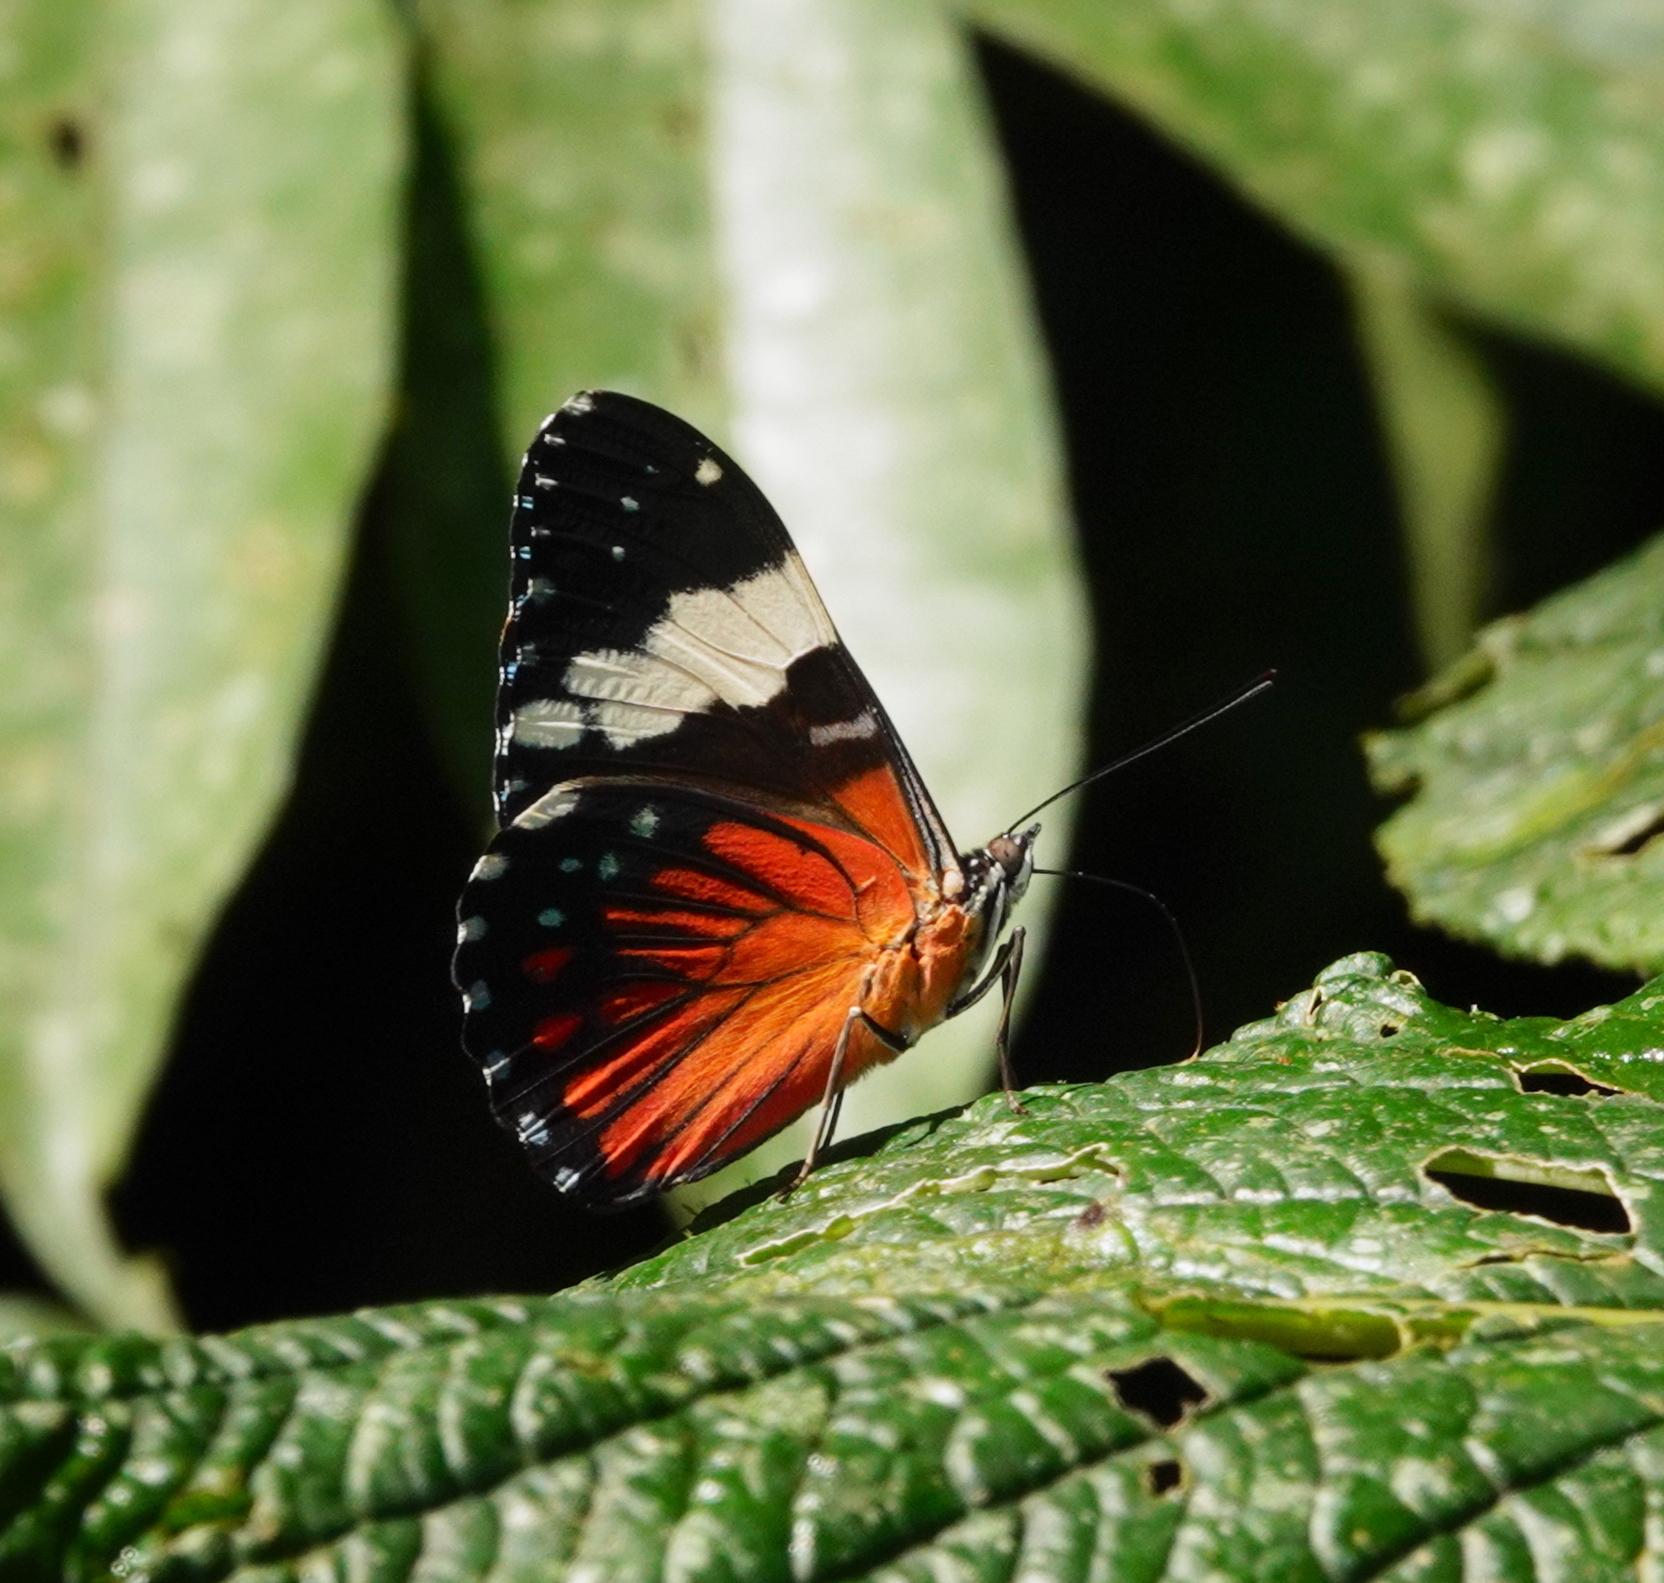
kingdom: Animalia
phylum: Arthropoda
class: Insecta
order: Lepidoptera
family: Nymphalidae
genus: Hamadryas
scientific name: Hamadryas amphinome
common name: Red cracker
